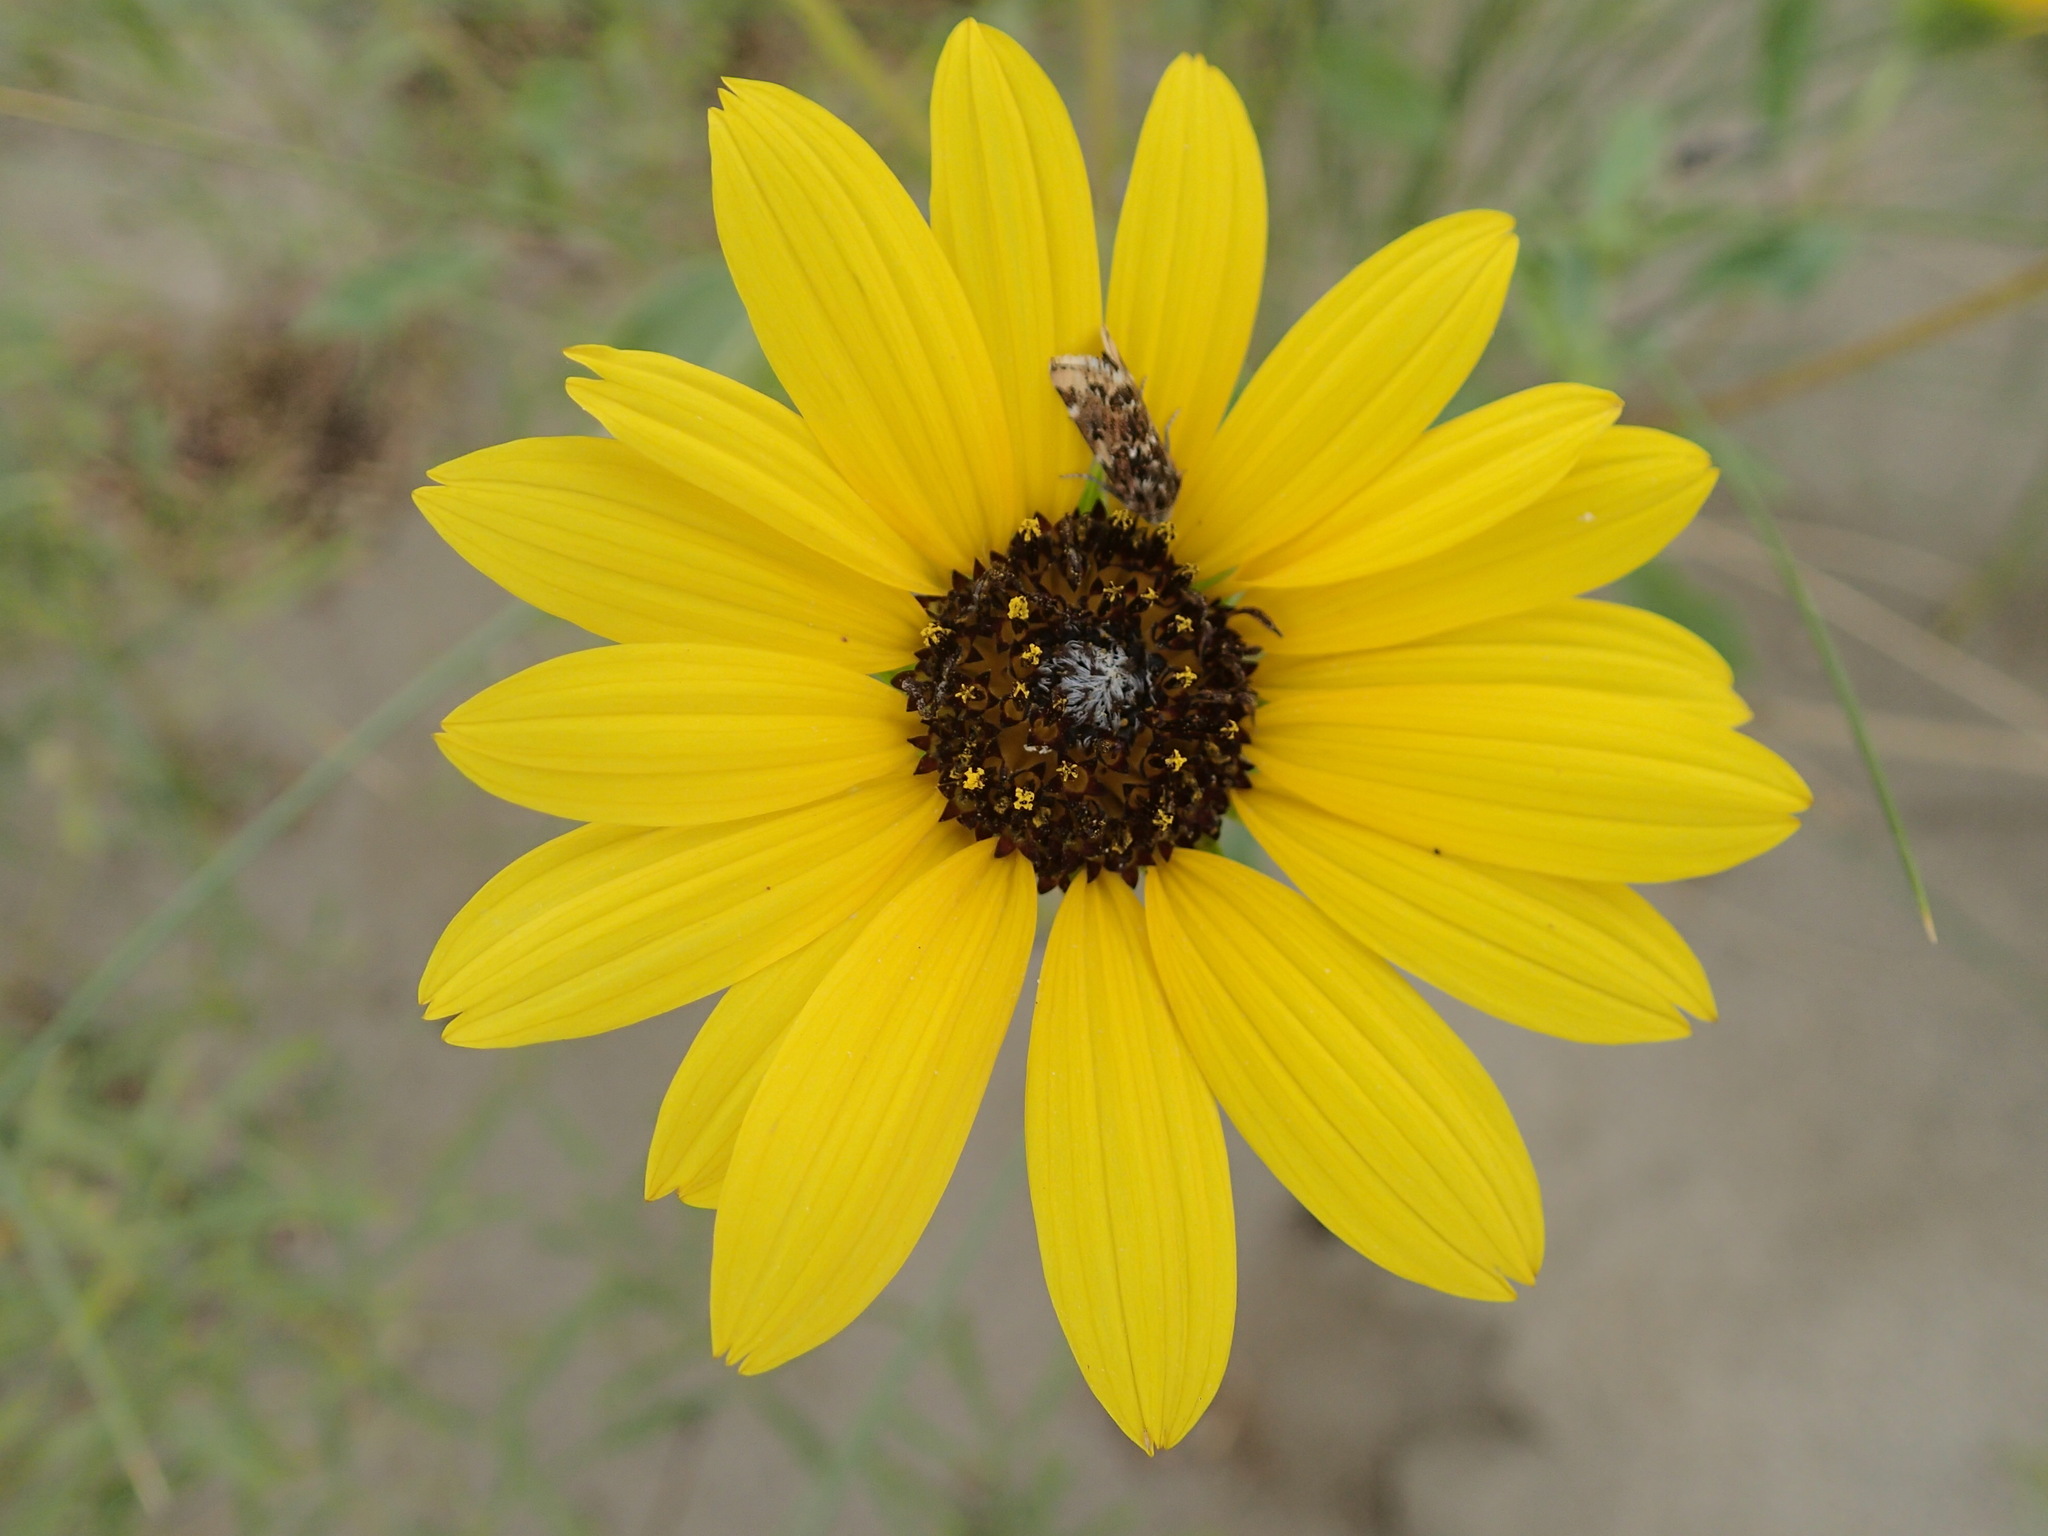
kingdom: Plantae
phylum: Tracheophyta
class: Magnoliopsida
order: Asterales
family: Asteraceae
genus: Helianthus
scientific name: Helianthus petiolaris
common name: Lesser sunflower
